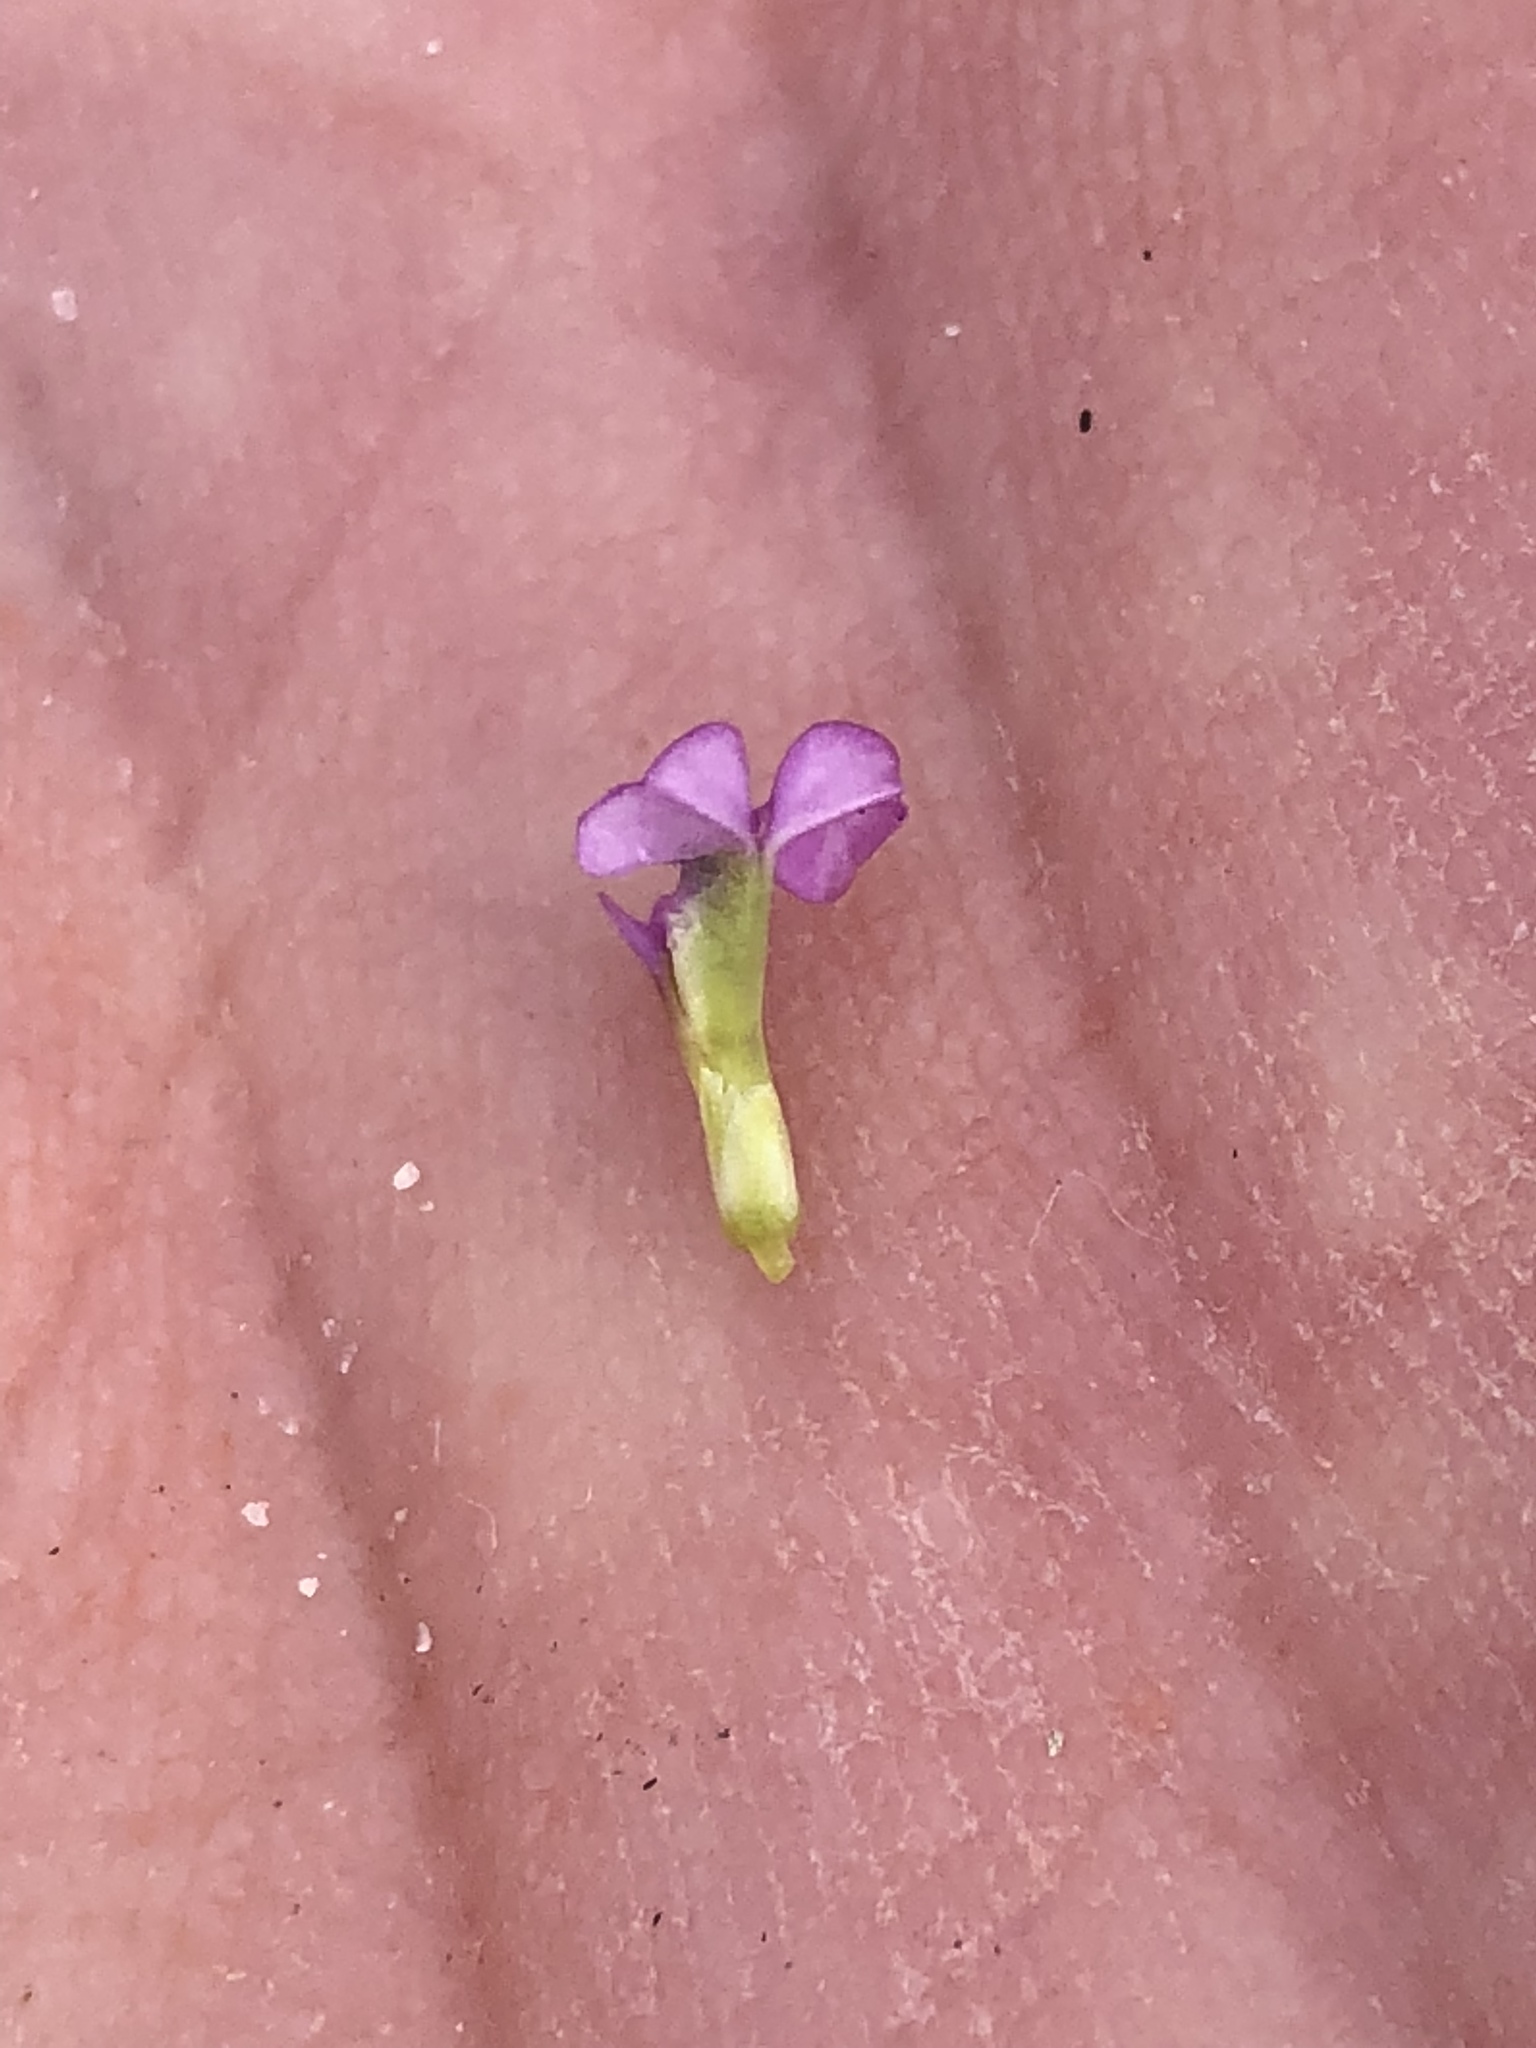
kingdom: Plantae
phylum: Tracheophyta
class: Magnoliopsida
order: Fabales
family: Polygalaceae
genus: Muraltia
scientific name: Muraltia satureioides
